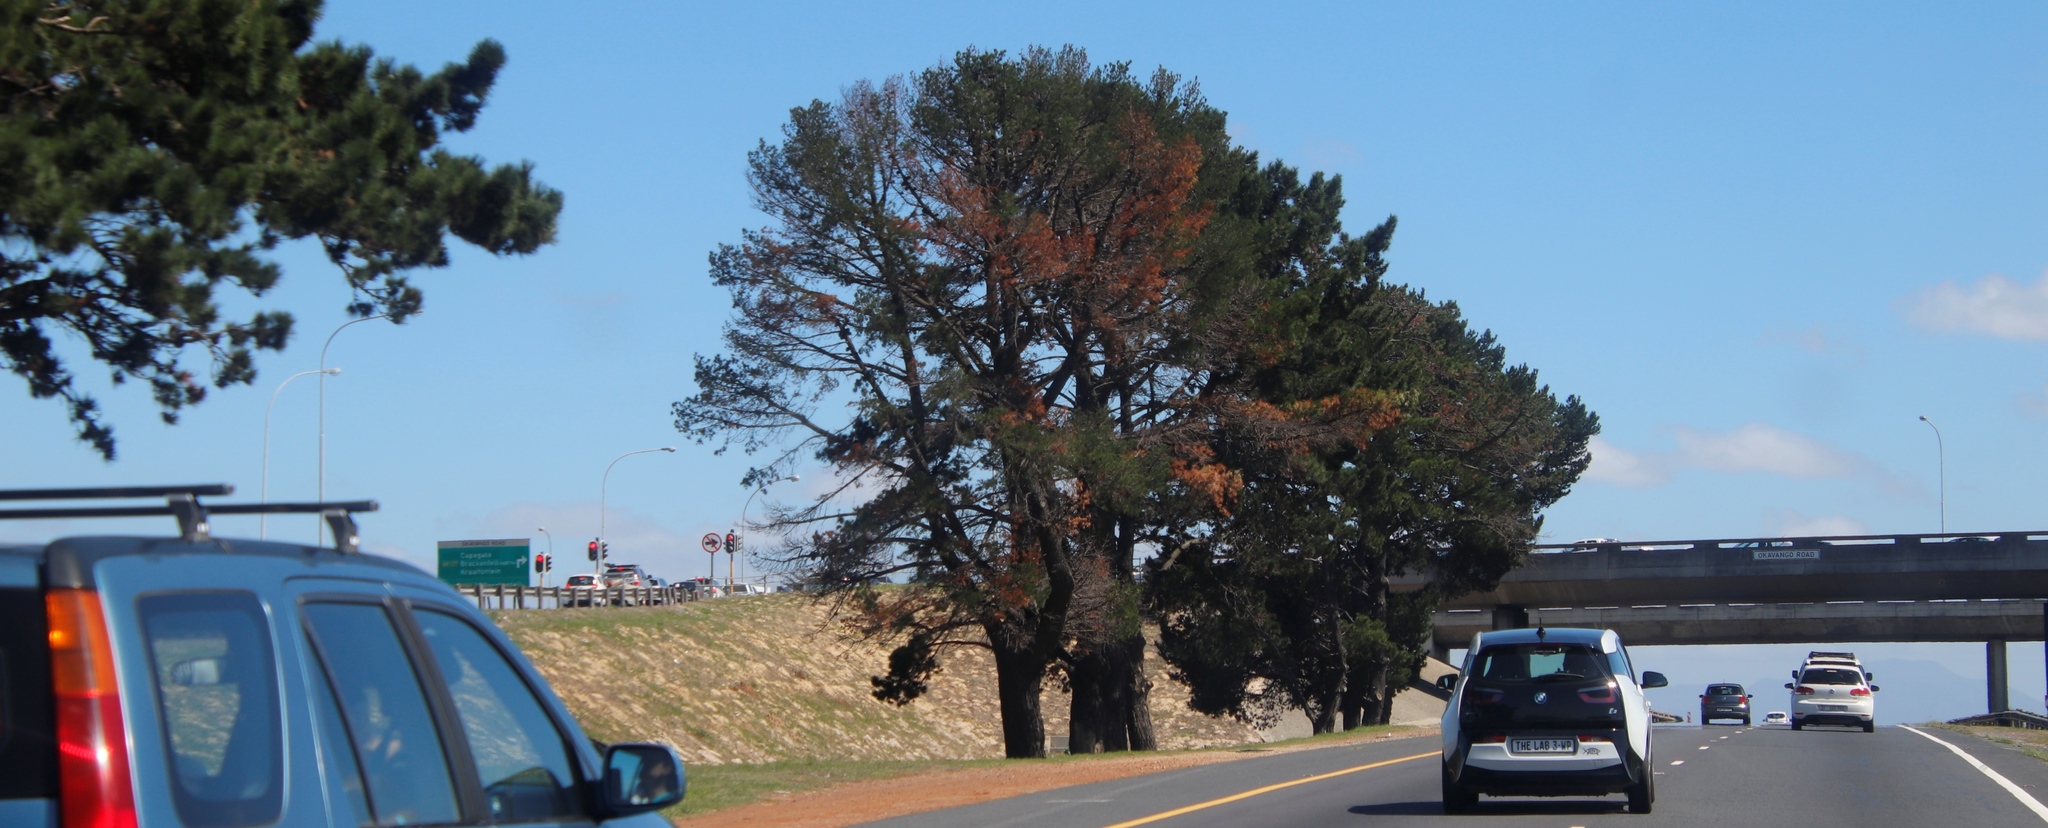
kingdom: Plantae
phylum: Tracheophyta
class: Pinopsida
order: Pinales
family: Pinaceae
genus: Pinus
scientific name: Pinus radiata
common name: Monterey pine
